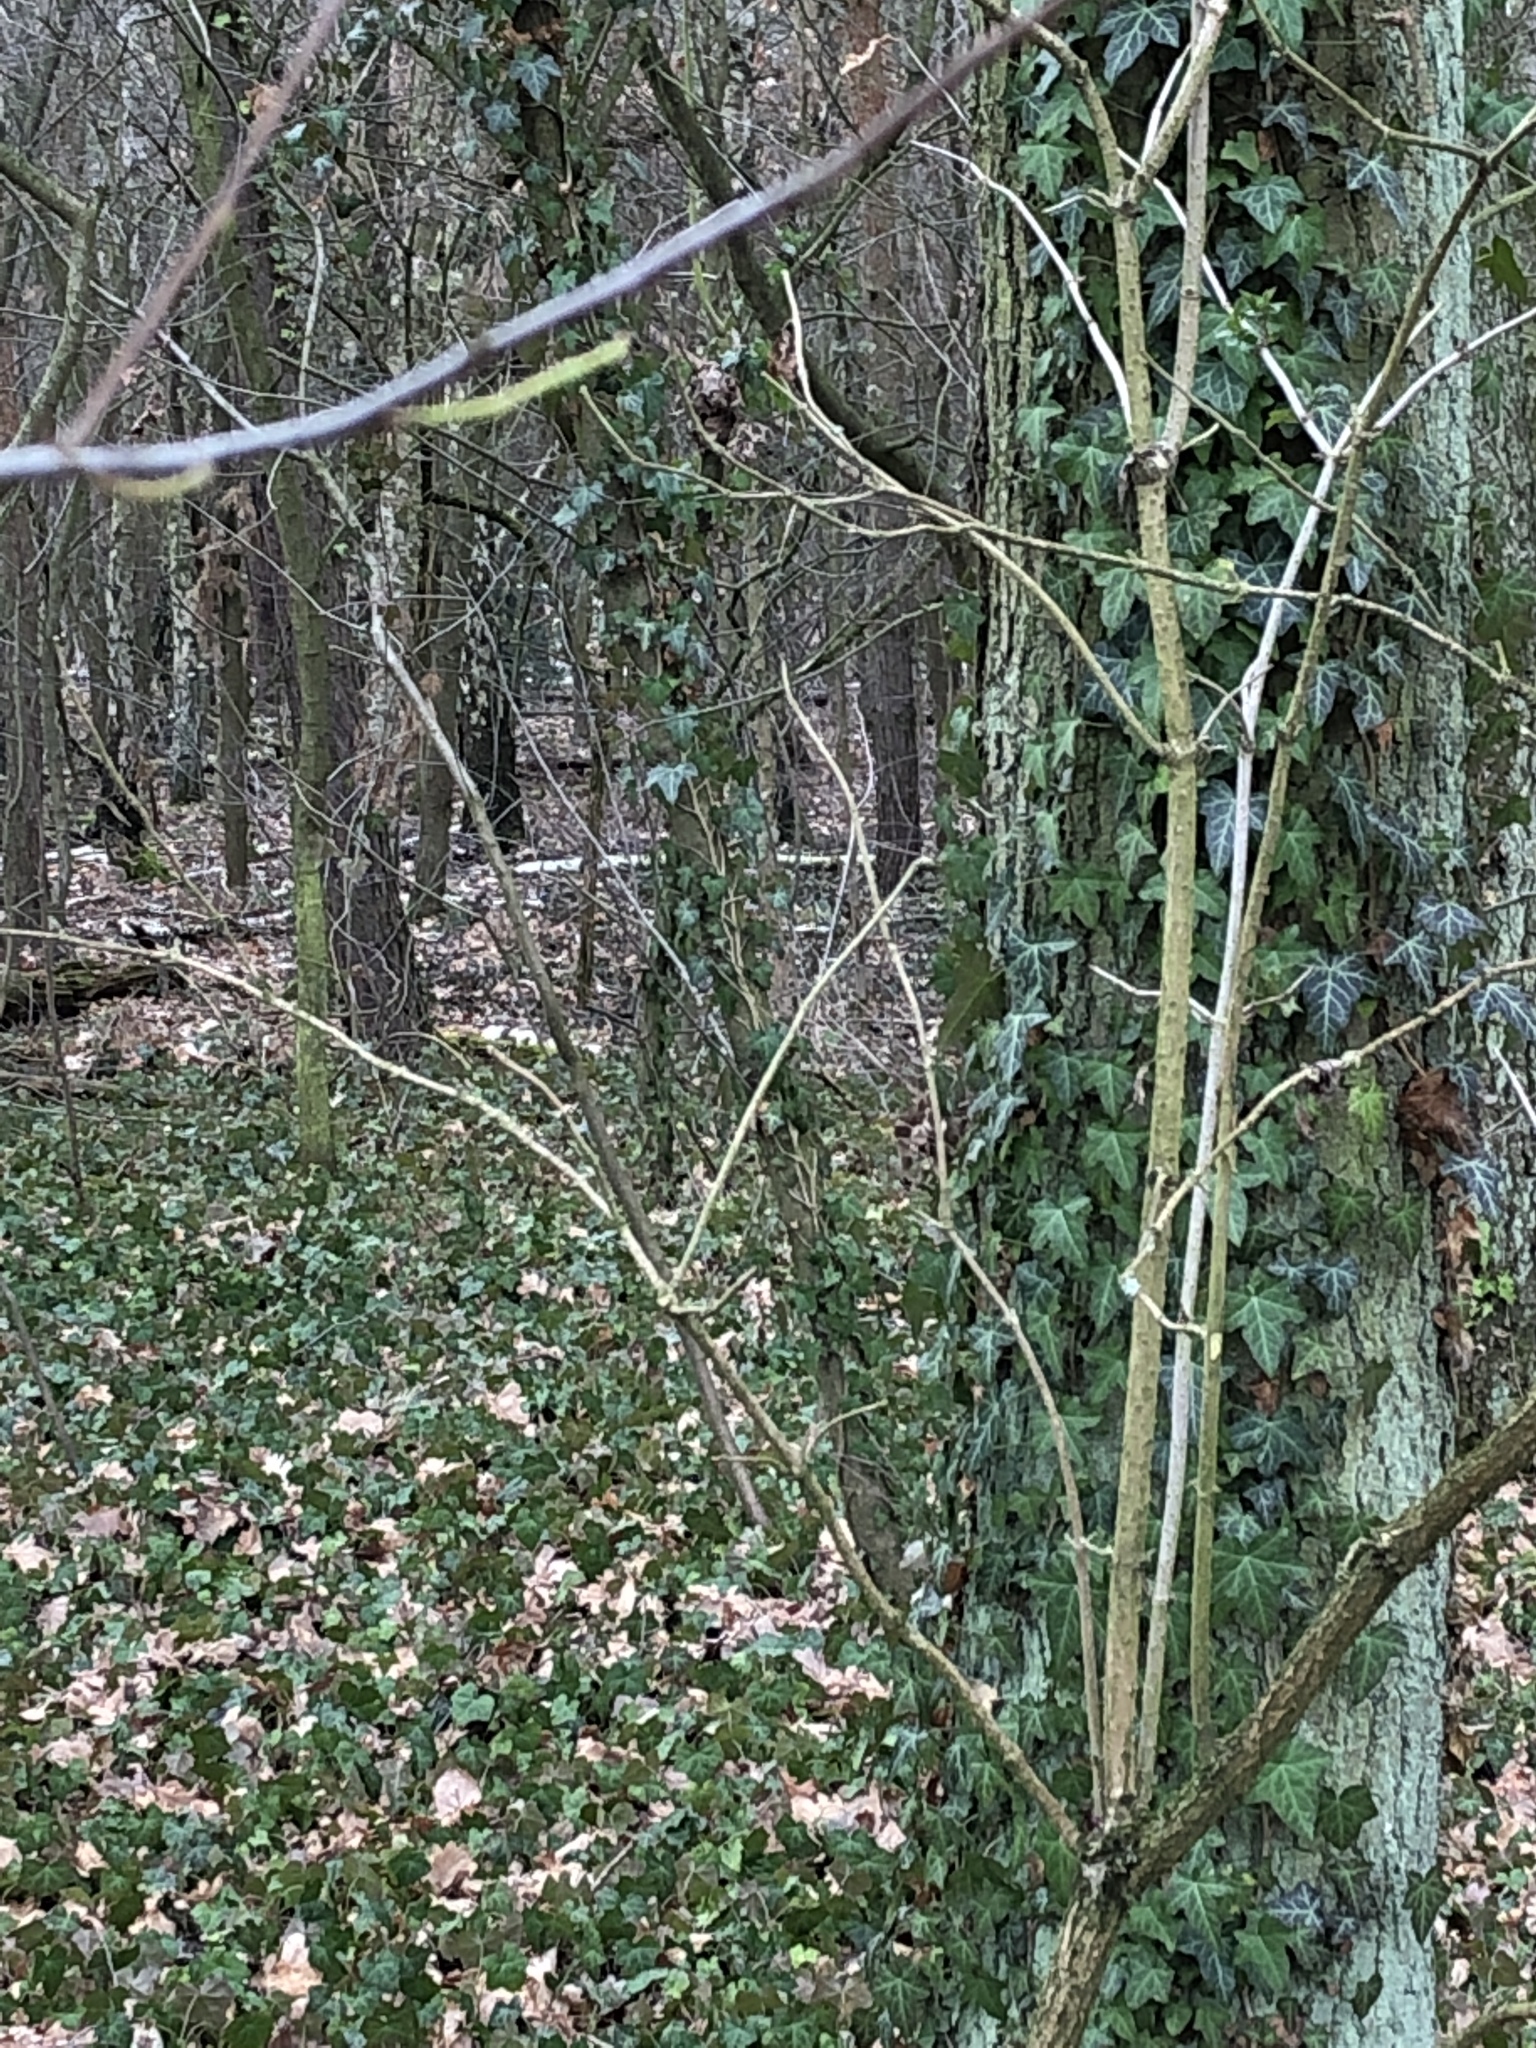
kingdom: Plantae
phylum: Tracheophyta
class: Magnoliopsida
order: Apiales
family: Araliaceae
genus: Hedera
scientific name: Hedera helix
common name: Ivy
